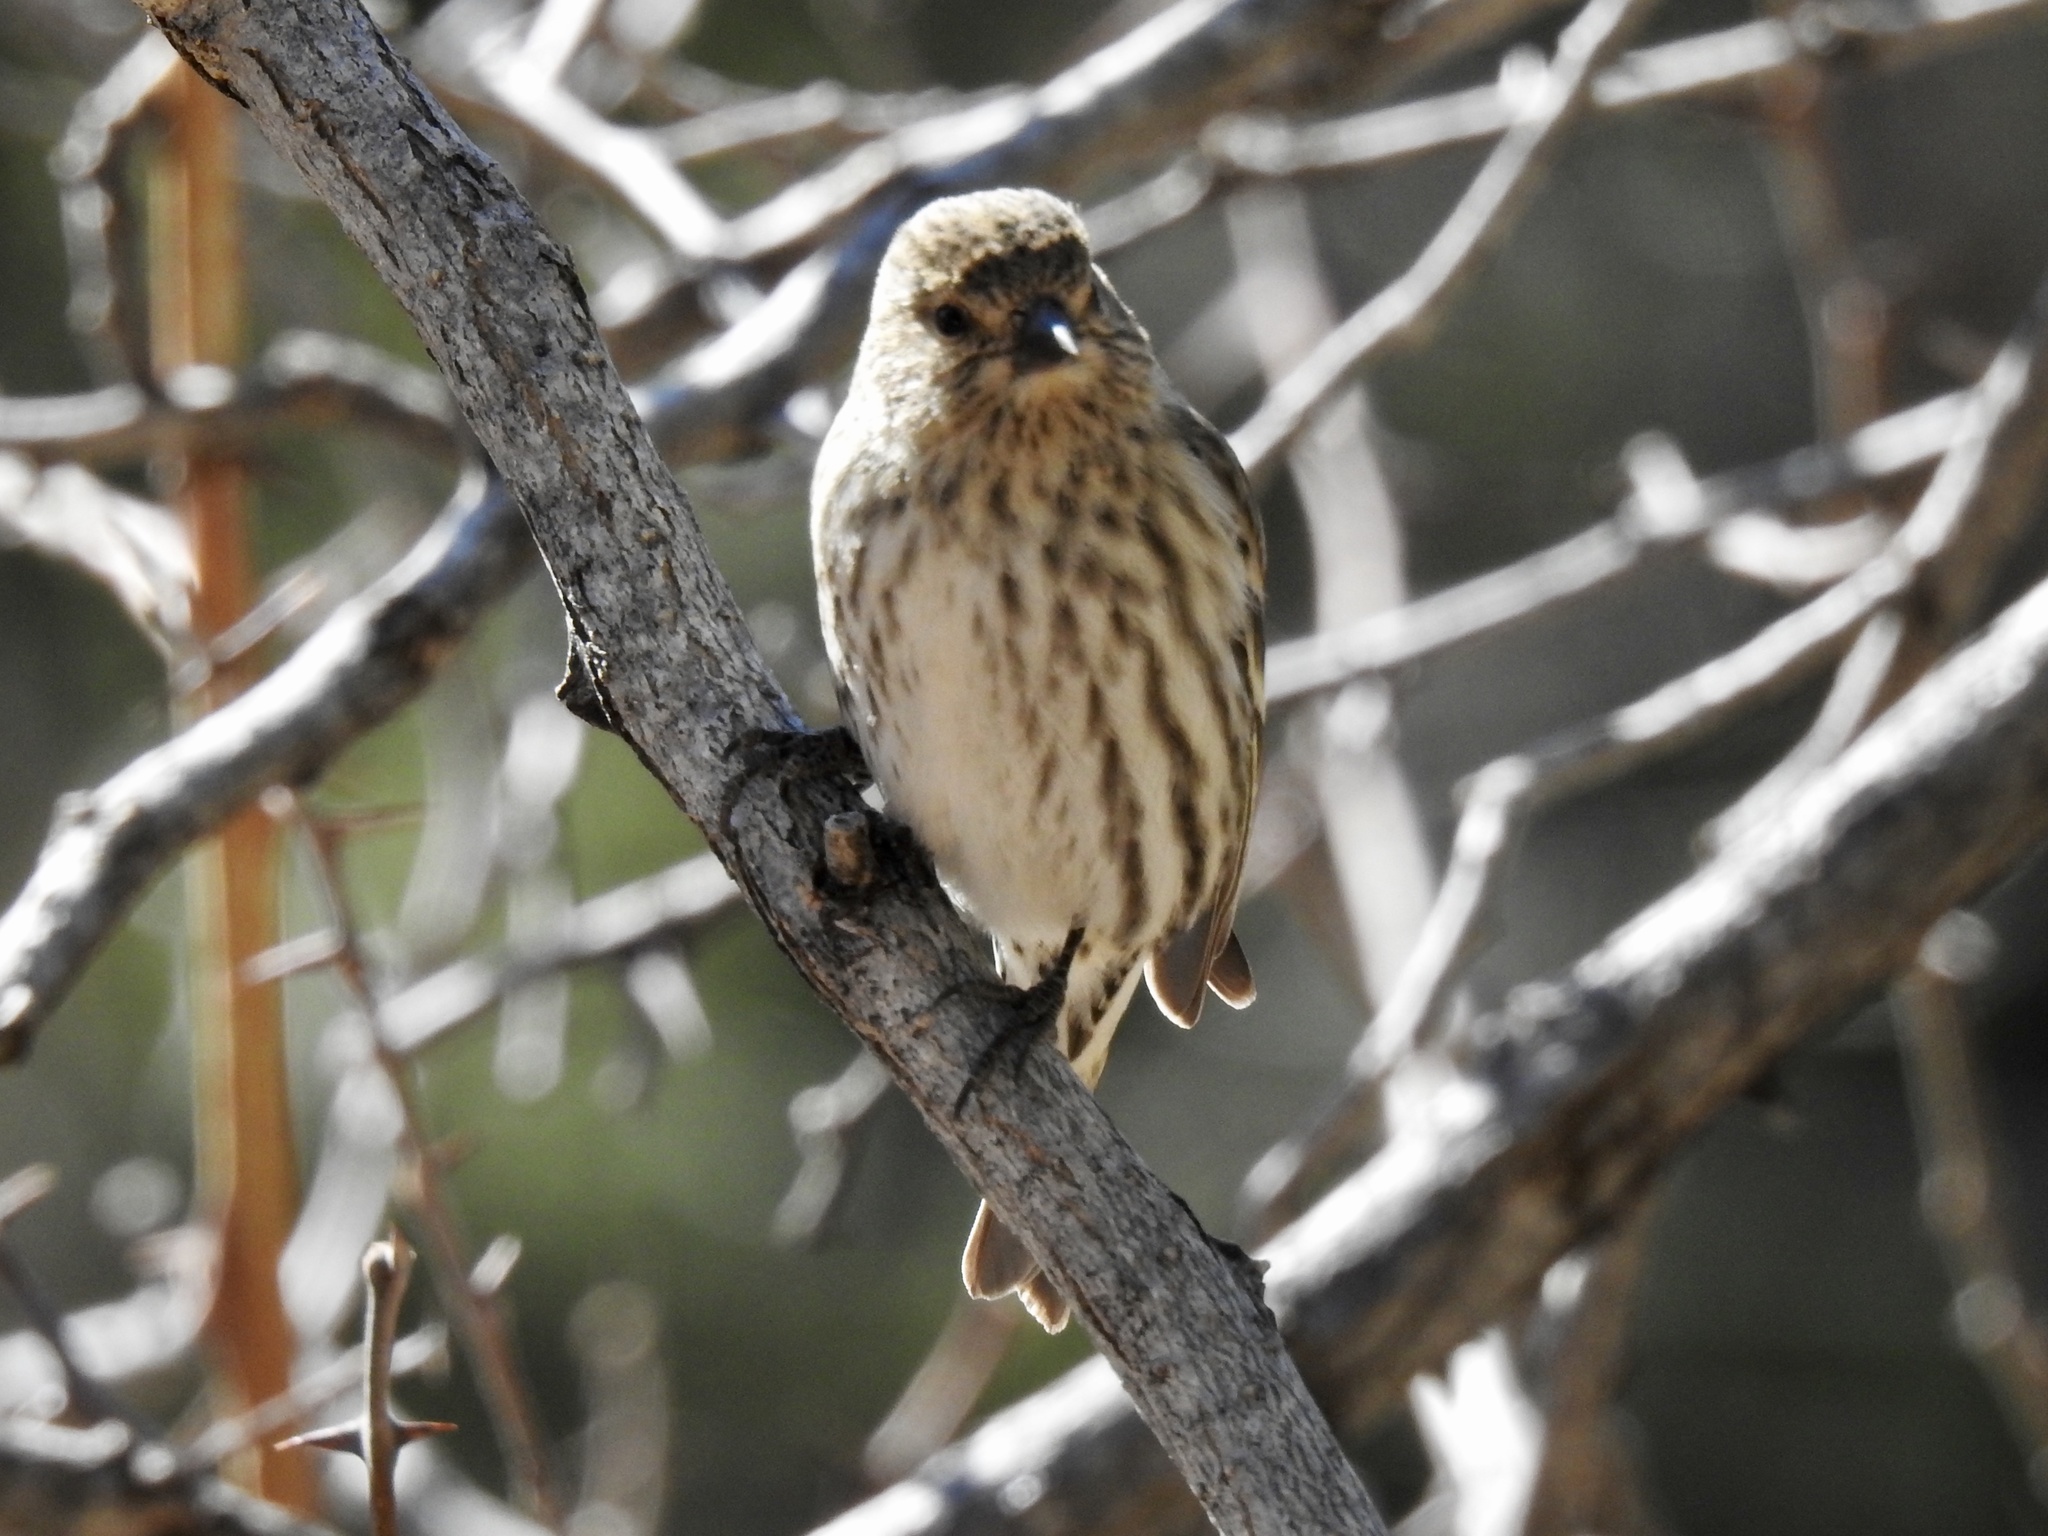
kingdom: Animalia
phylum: Chordata
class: Aves
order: Passeriformes
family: Fringillidae
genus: Spinus
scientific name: Spinus pinus
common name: Pine siskin
